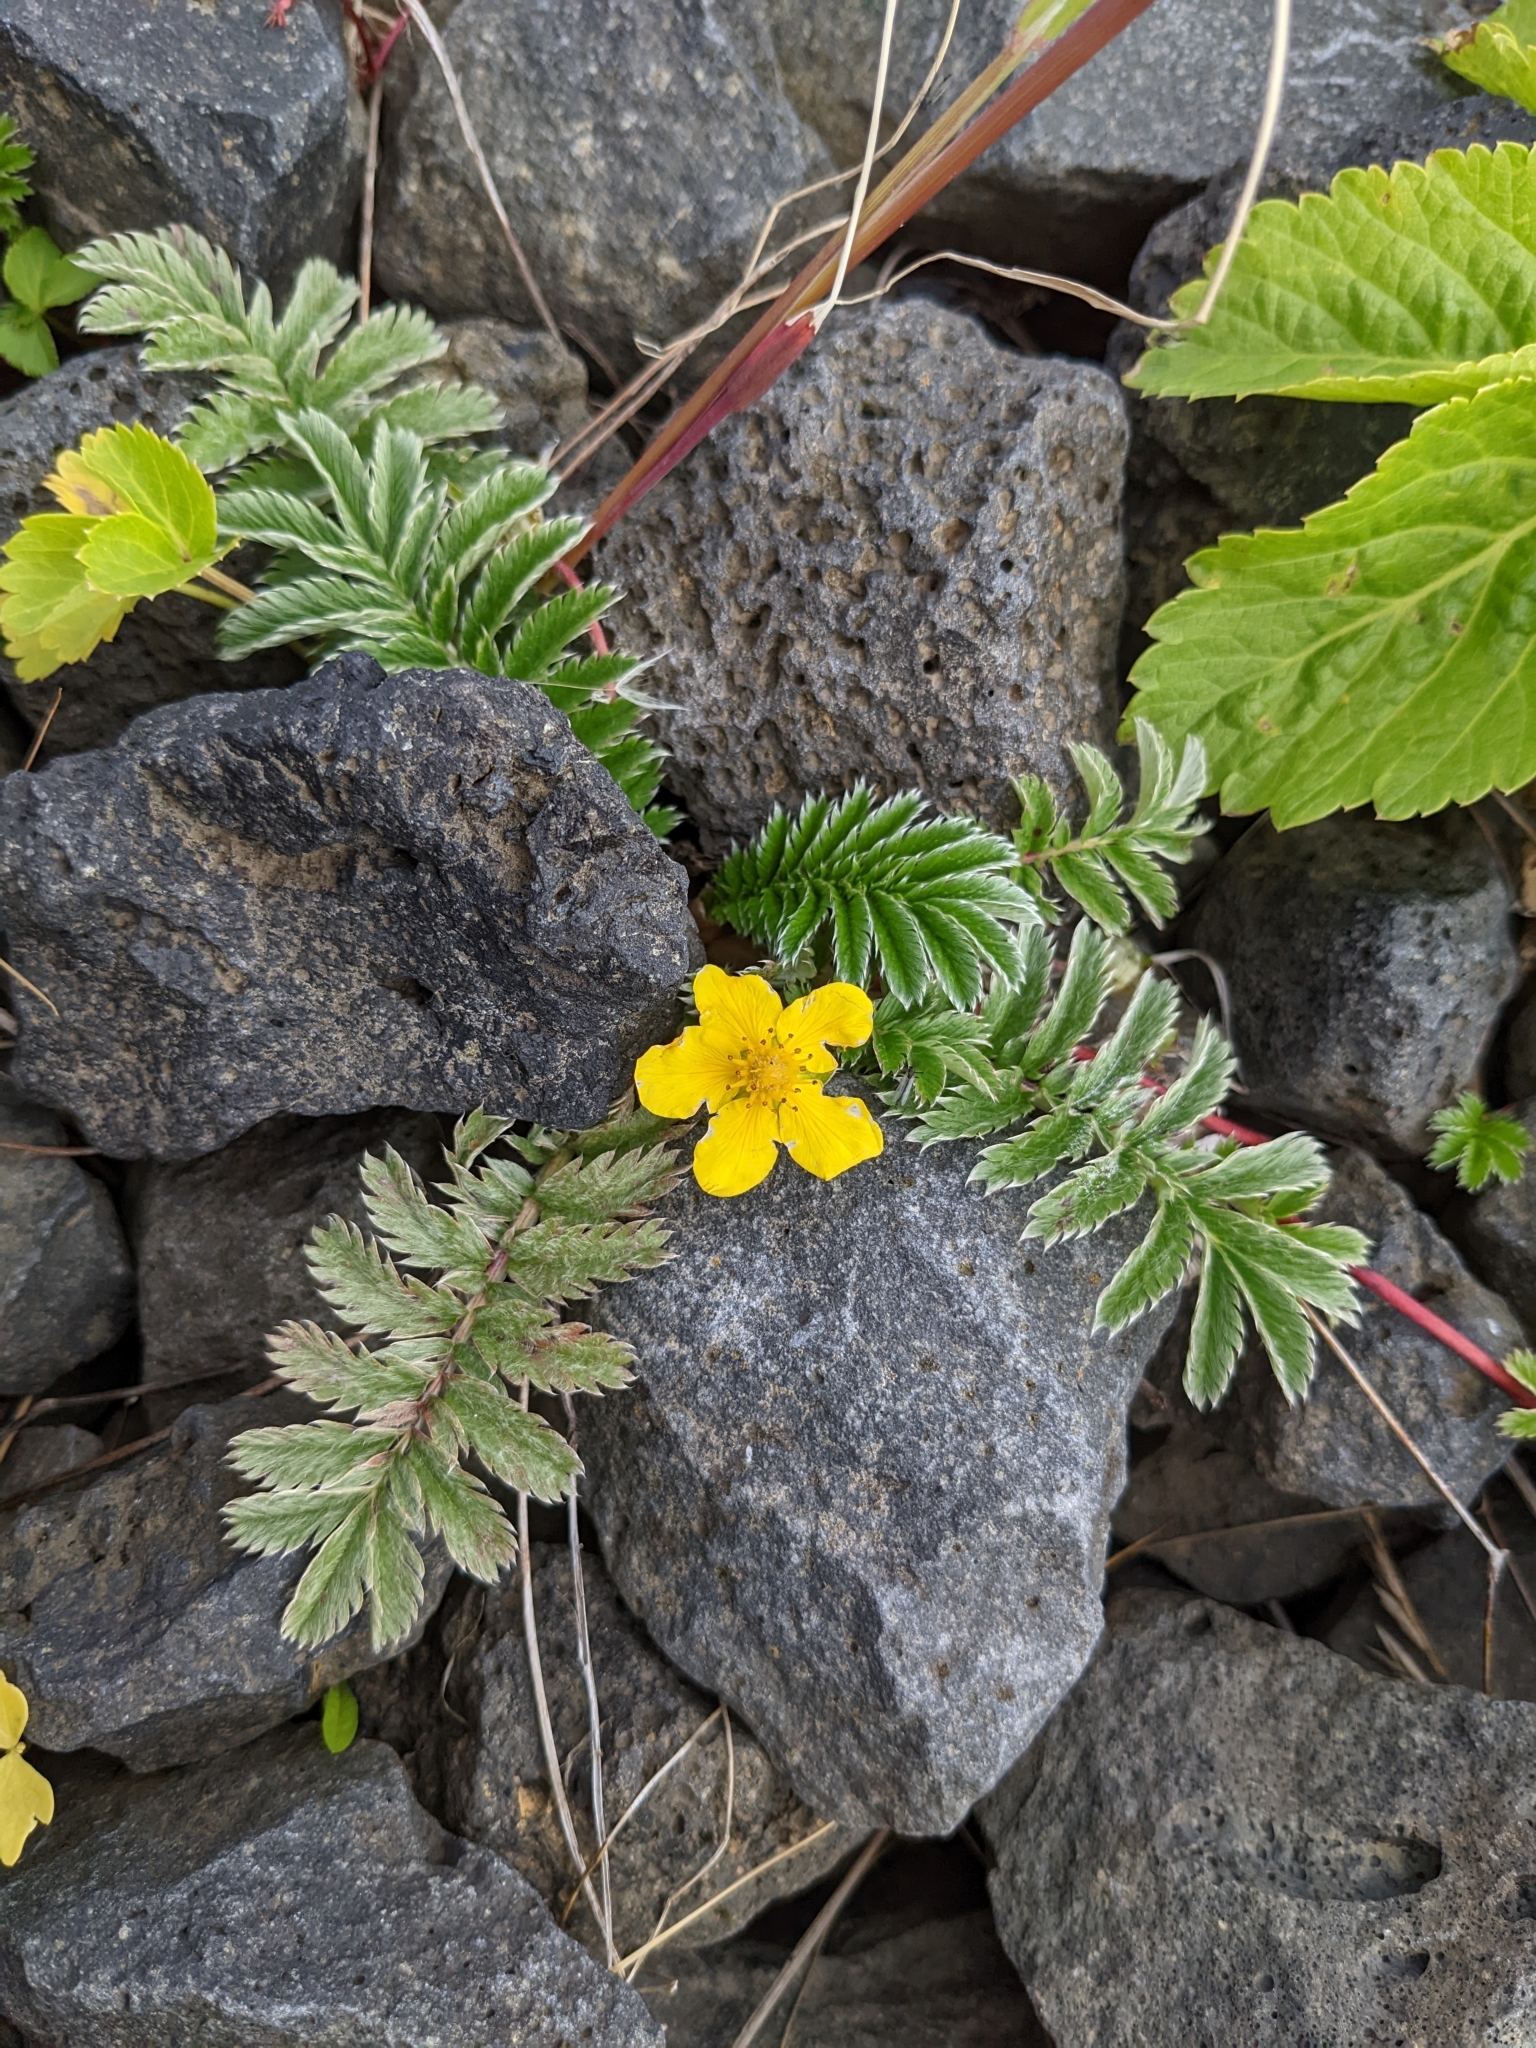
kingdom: Plantae
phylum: Tracheophyta
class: Magnoliopsida
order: Rosales
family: Rosaceae
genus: Argentina
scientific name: Argentina anserina
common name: Common silverweed
